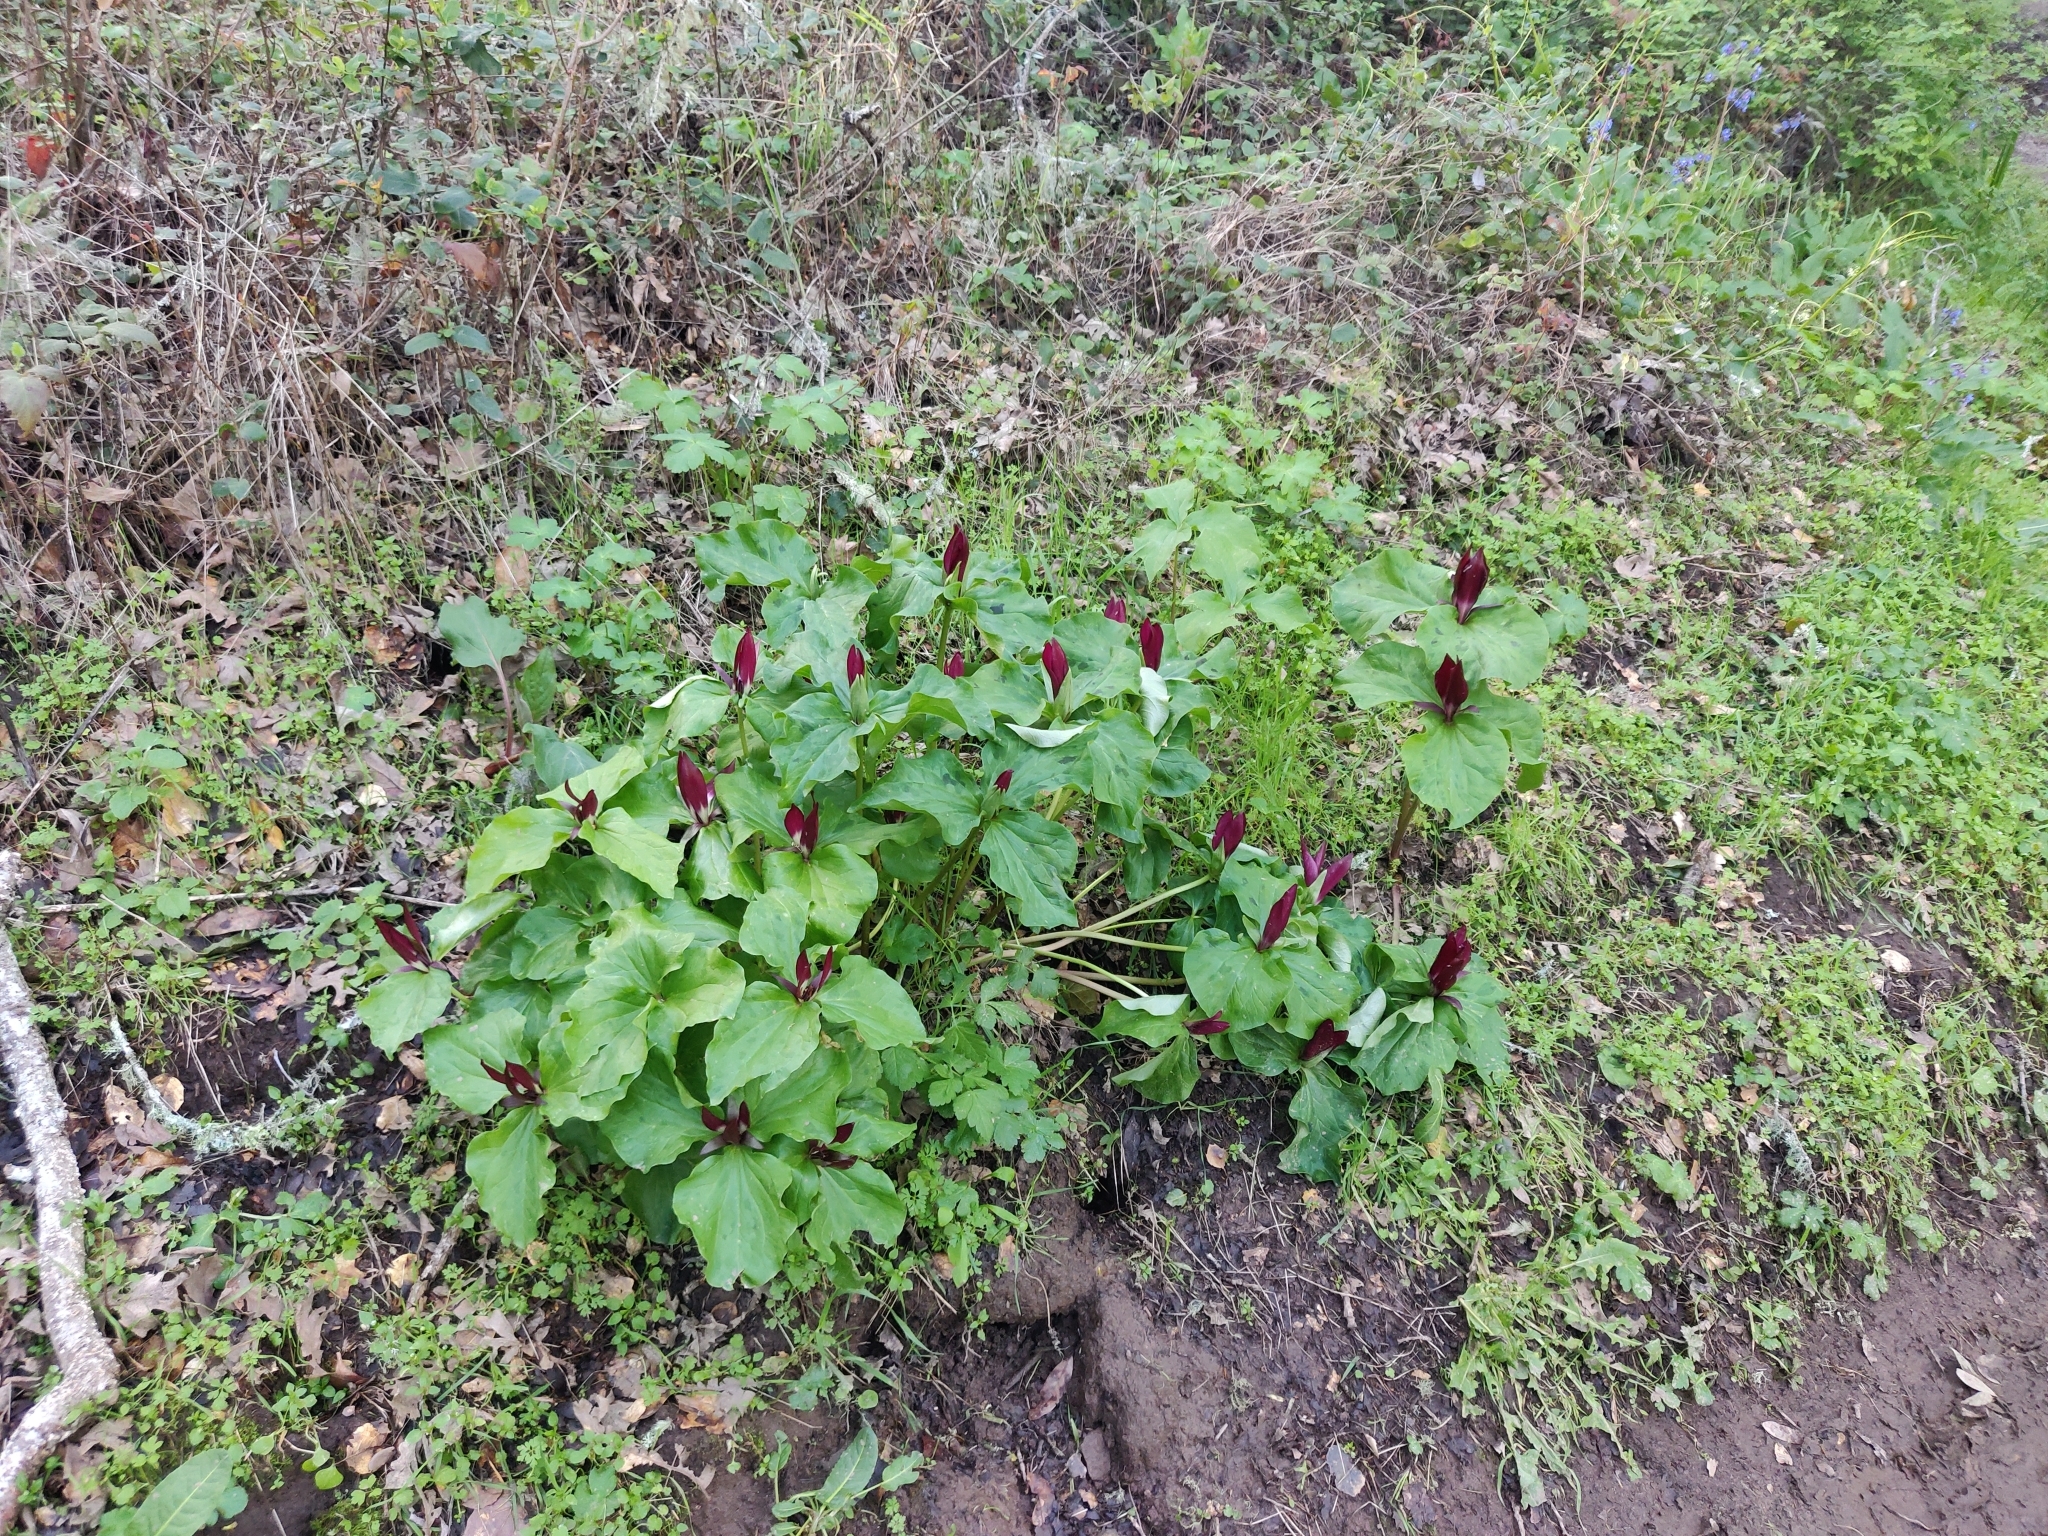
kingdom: Plantae
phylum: Tracheophyta
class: Liliopsida
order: Liliales
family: Melanthiaceae
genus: Trillium
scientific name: Trillium chloropetalum
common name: Giant trillium
